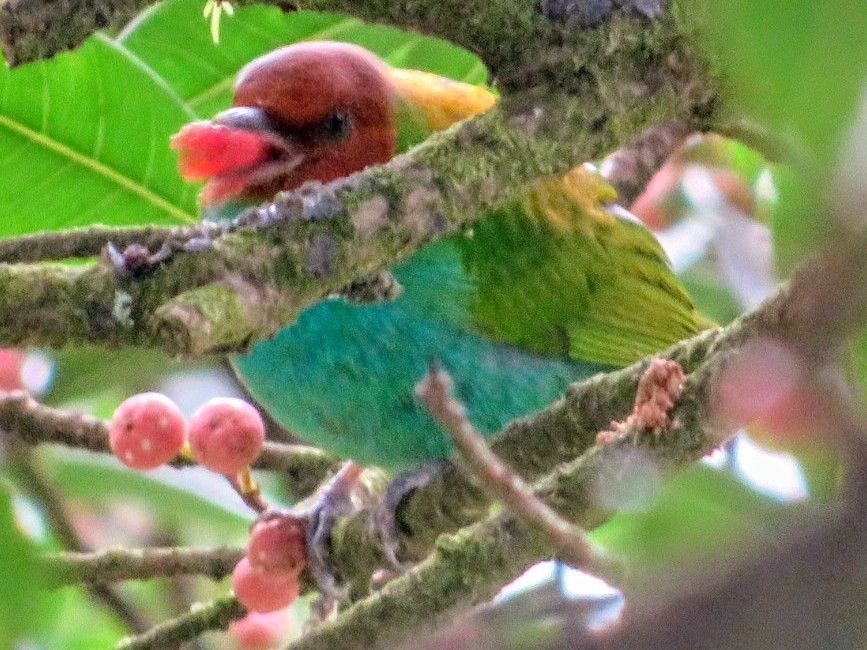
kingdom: Animalia
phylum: Chordata
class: Aves
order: Passeriformes
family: Thraupidae
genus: Tangara
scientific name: Tangara gyrola
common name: Bay-headed tanager
